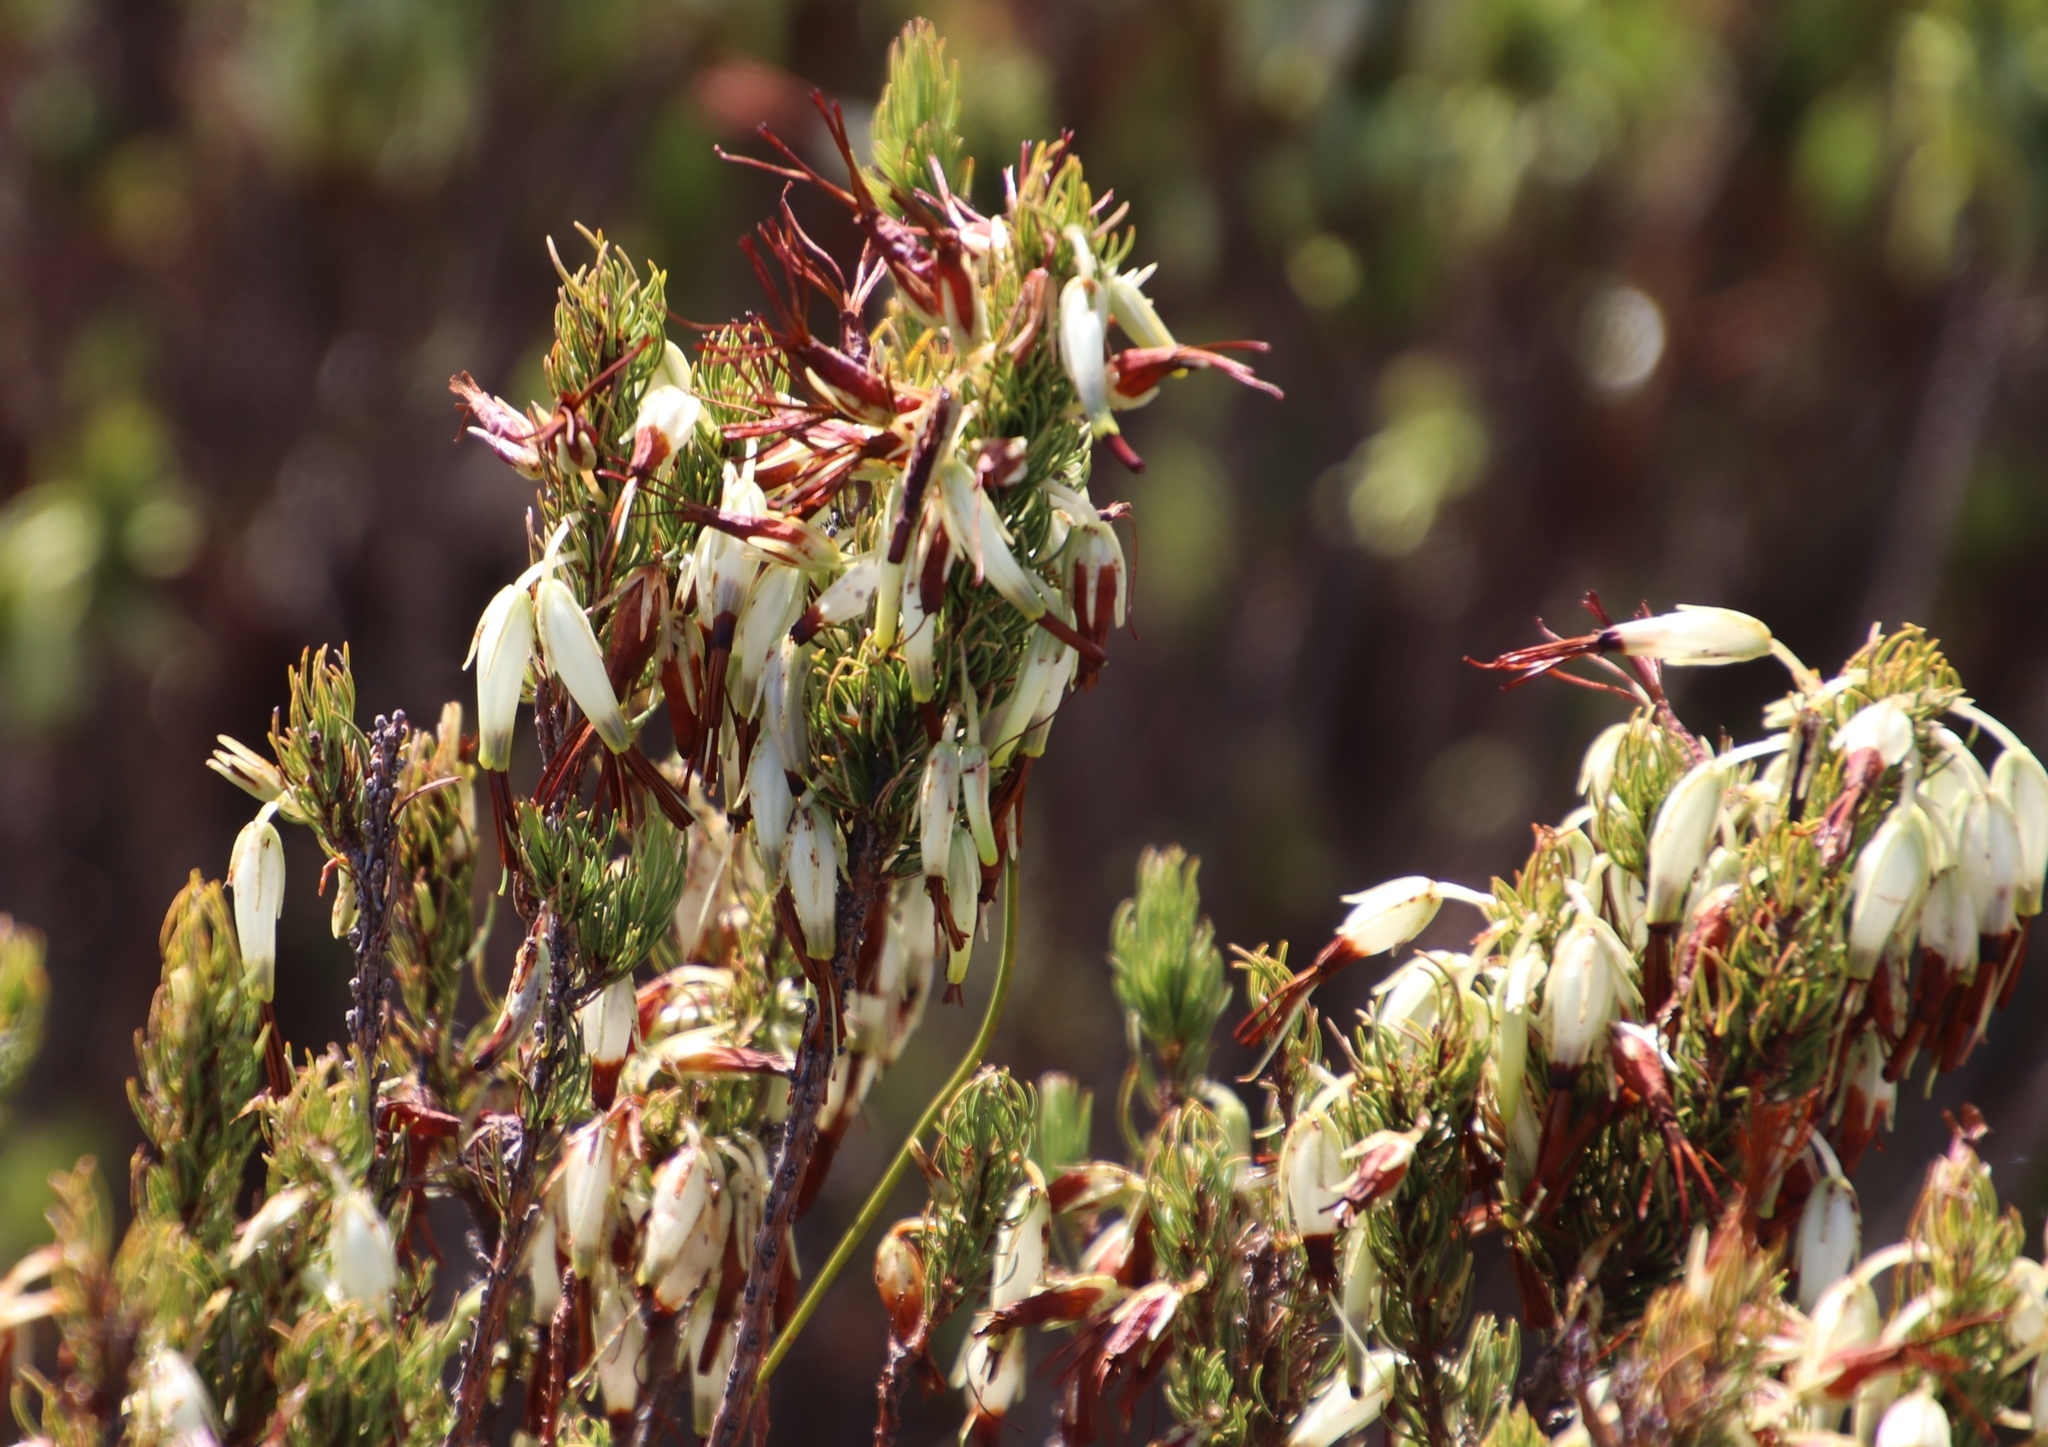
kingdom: Plantae
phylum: Tracheophyta
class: Magnoliopsida
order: Ericales
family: Ericaceae
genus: Erica
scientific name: Erica plukenetii
